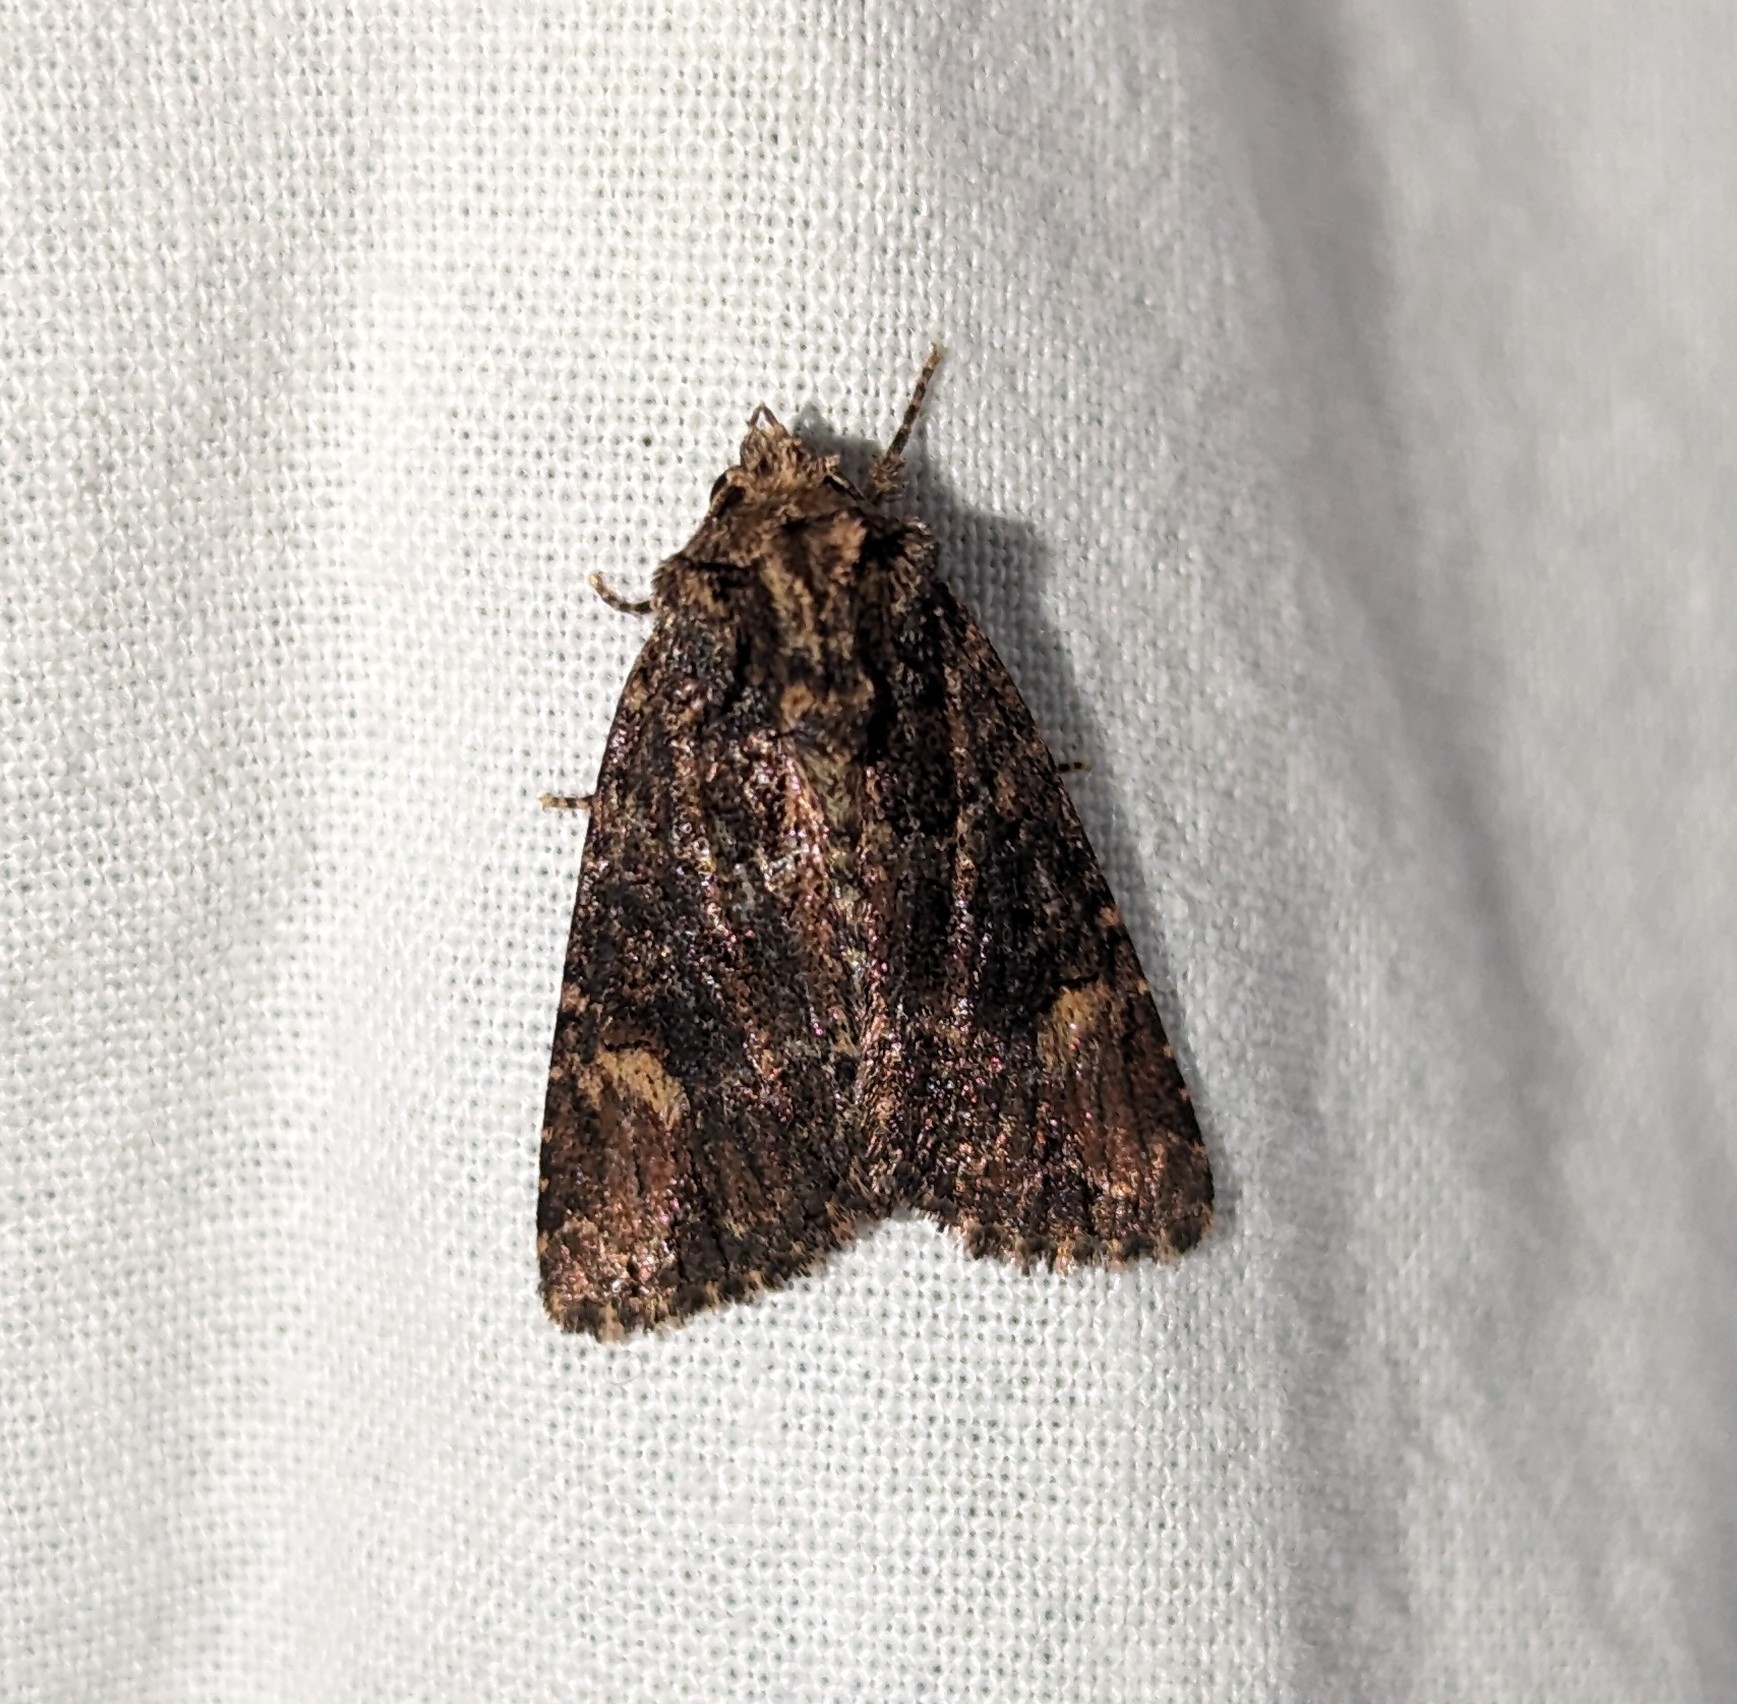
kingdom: Animalia
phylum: Arthropoda
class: Insecta
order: Lepidoptera
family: Noctuidae
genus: Aseptis
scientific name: Aseptis binotata
